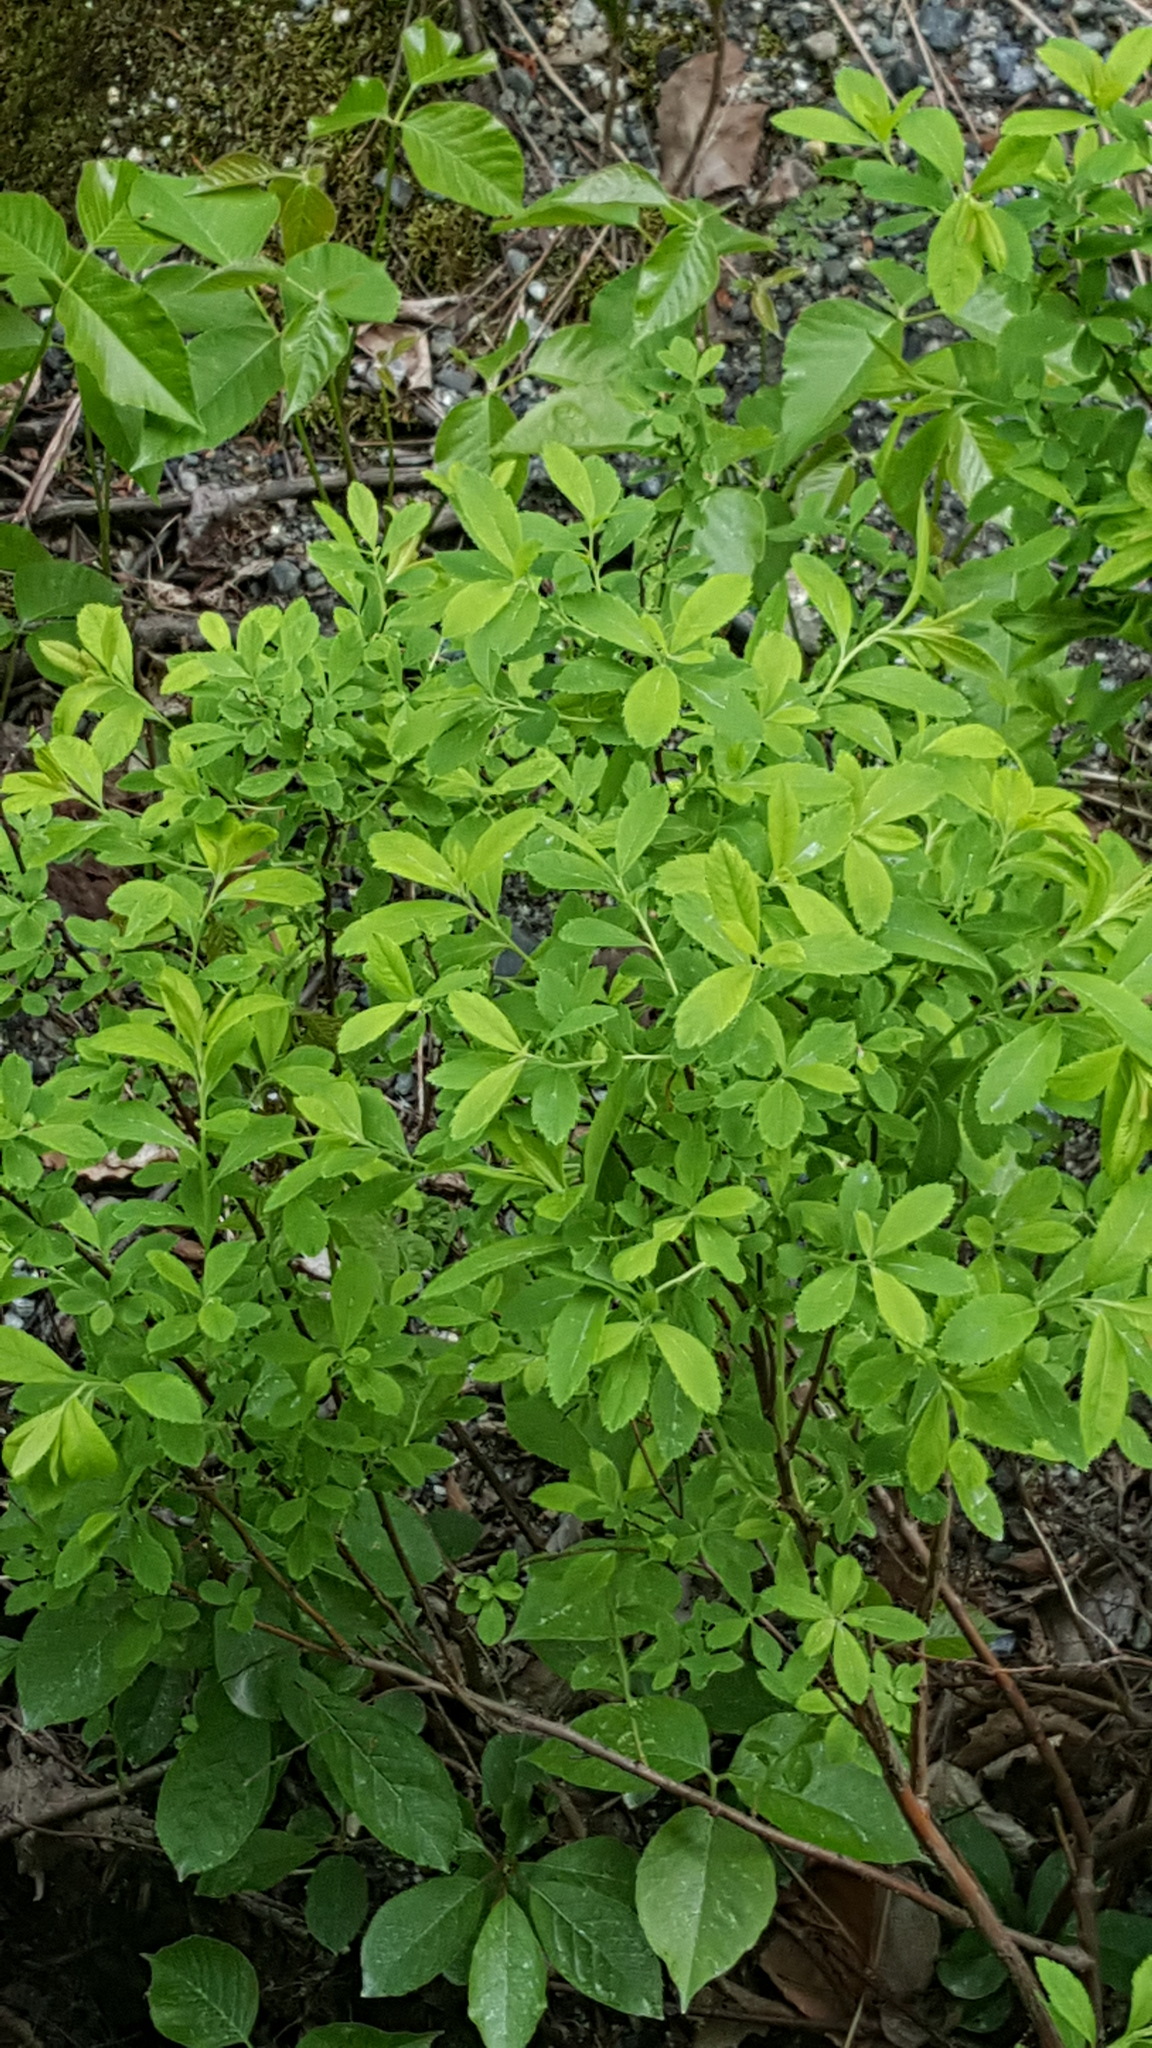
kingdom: Plantae
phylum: Tracheophyta
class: Magnoliopsida
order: Rosales
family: Rosaceae
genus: Spiraea
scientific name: Spiraea alba
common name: Pale bridewort
